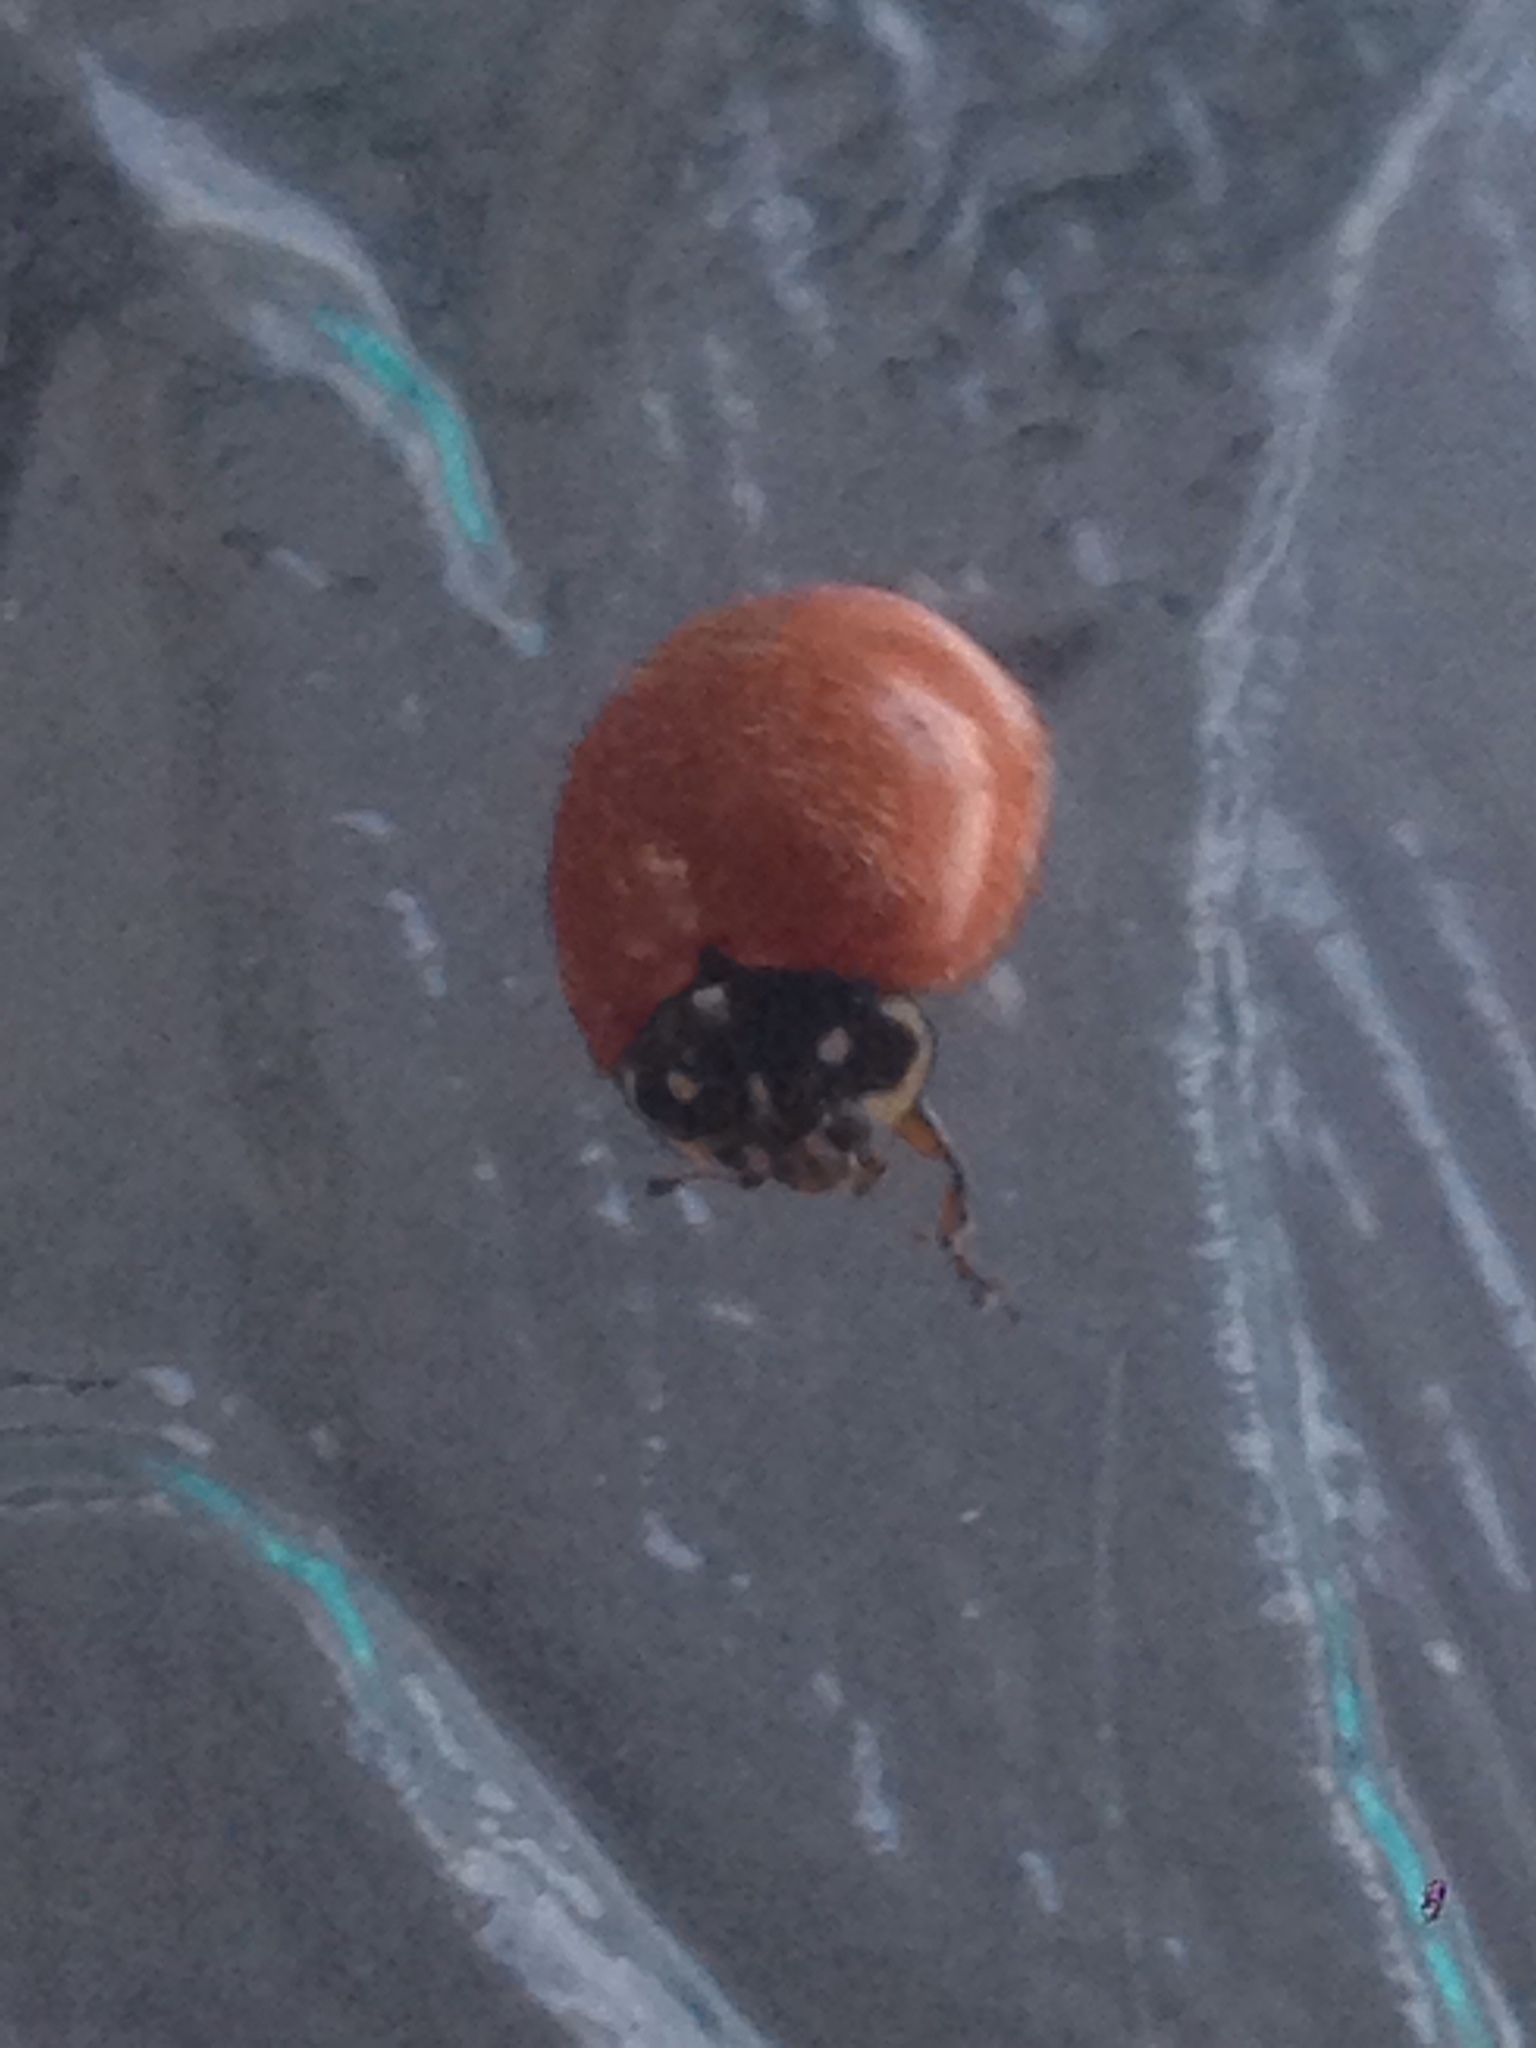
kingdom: Animalia
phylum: Arthropoda
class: Insecta
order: Coleoptera
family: Coccinellidae
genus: Cycloneda
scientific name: Cycloneda sanguinea
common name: Ladybird beetle
